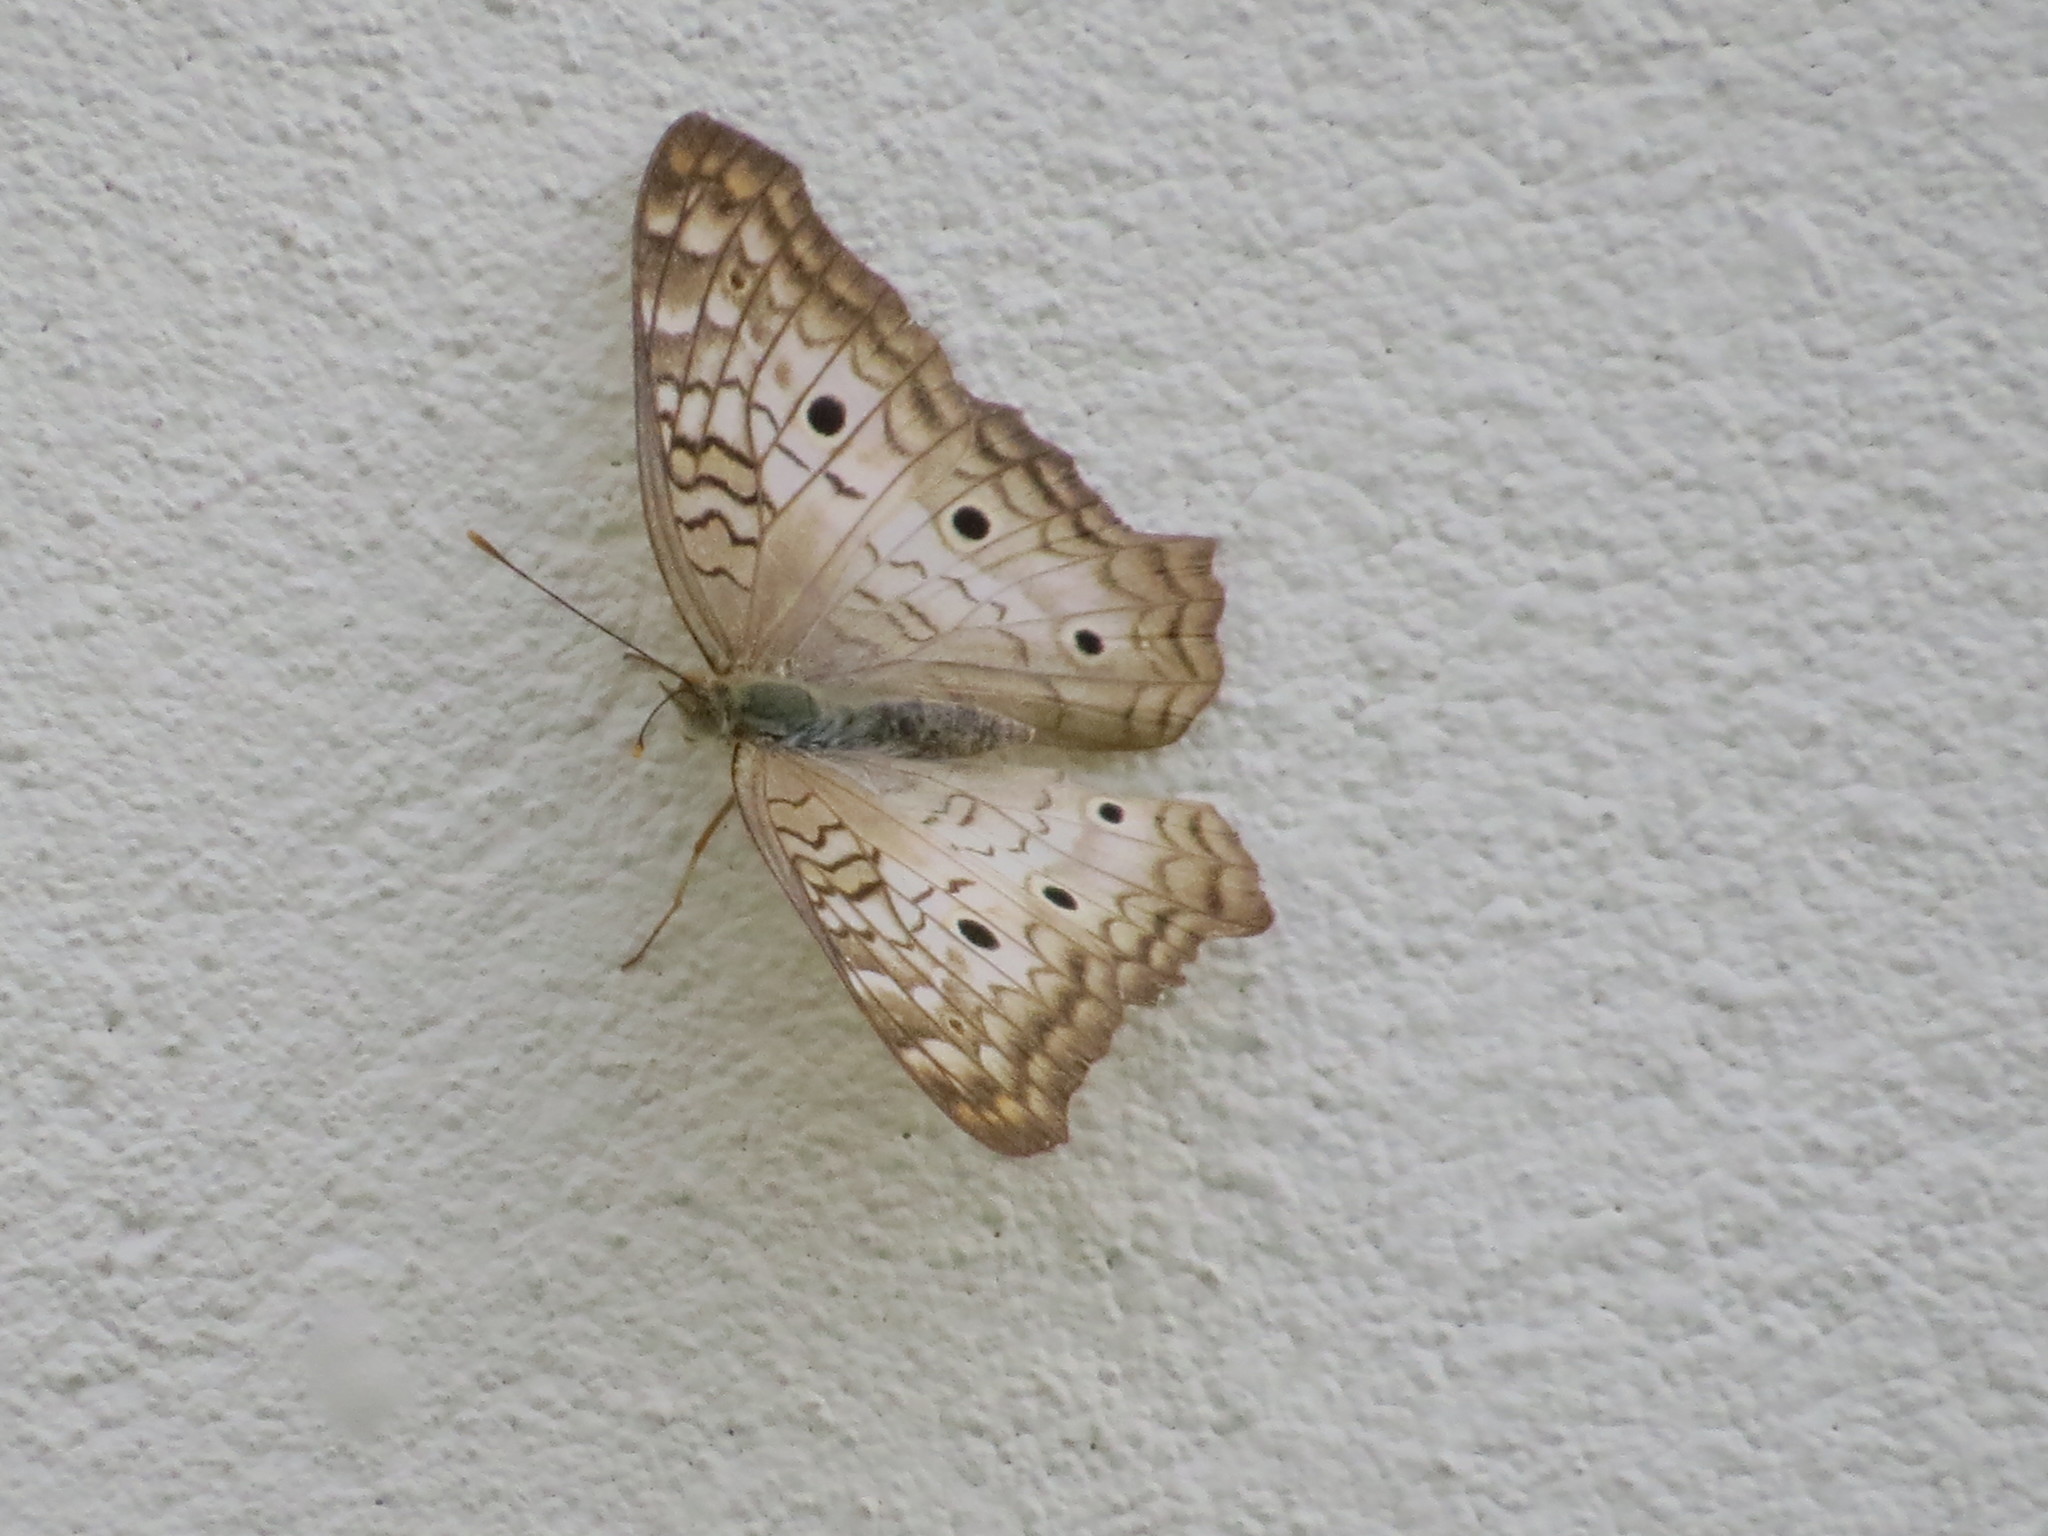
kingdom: Animalia
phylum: Arthropoda
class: Insecta
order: Lepidoptera
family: Nymphalidae
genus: Anartia
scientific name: Anartia jatrophae
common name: White peacock
